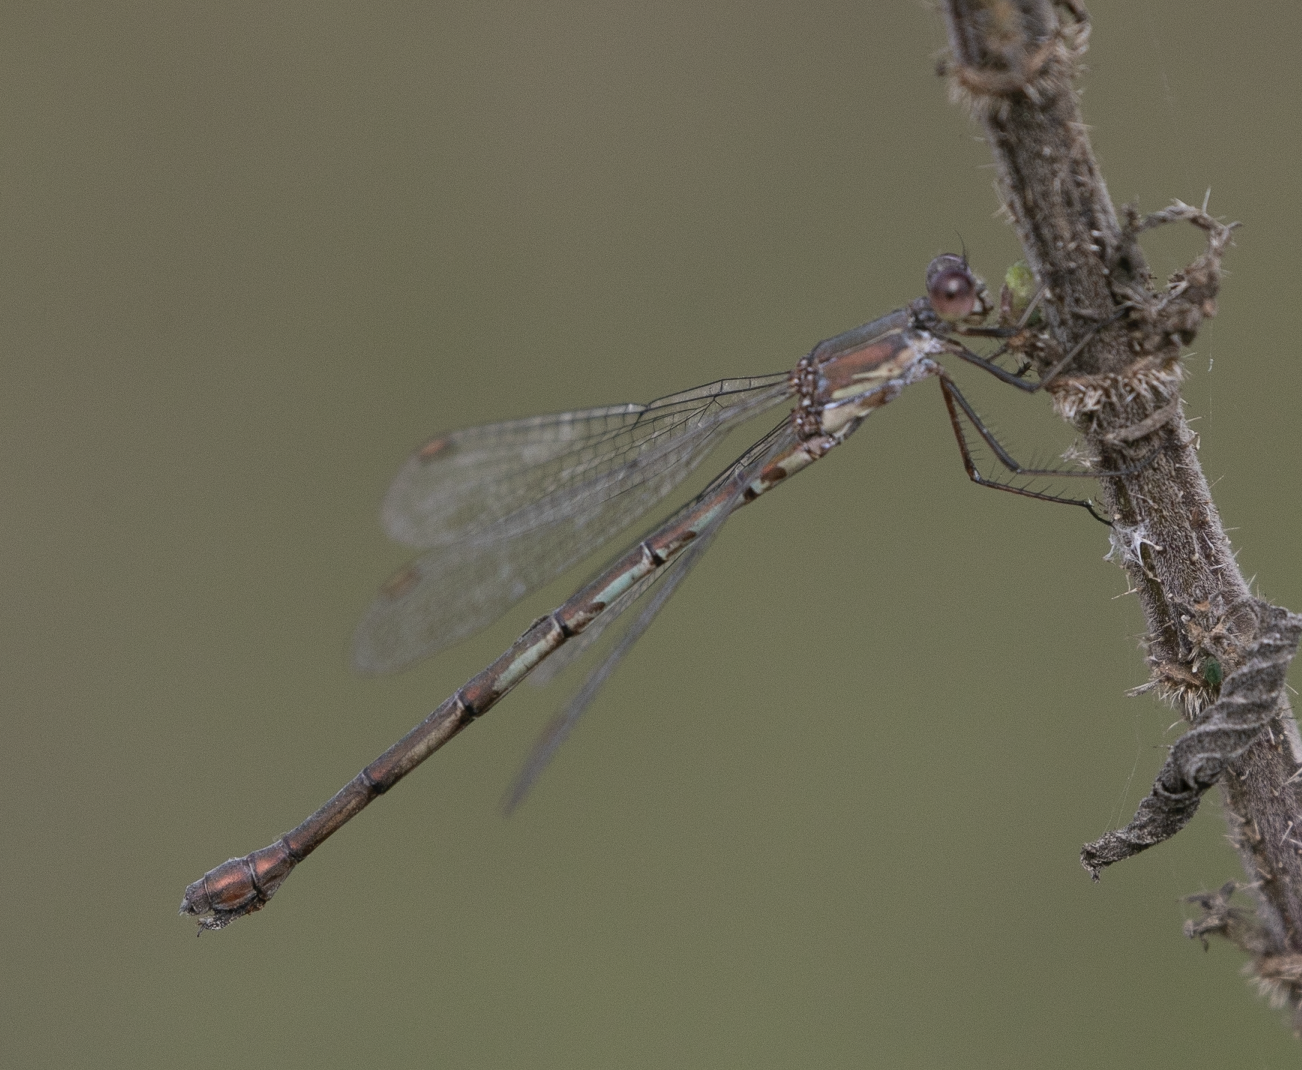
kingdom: Animalia
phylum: Arthropoda
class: Insecta
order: Odonata
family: Lestidae
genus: Chalcolestes
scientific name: Chalcolestes viridis
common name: Green emerald damselfly
